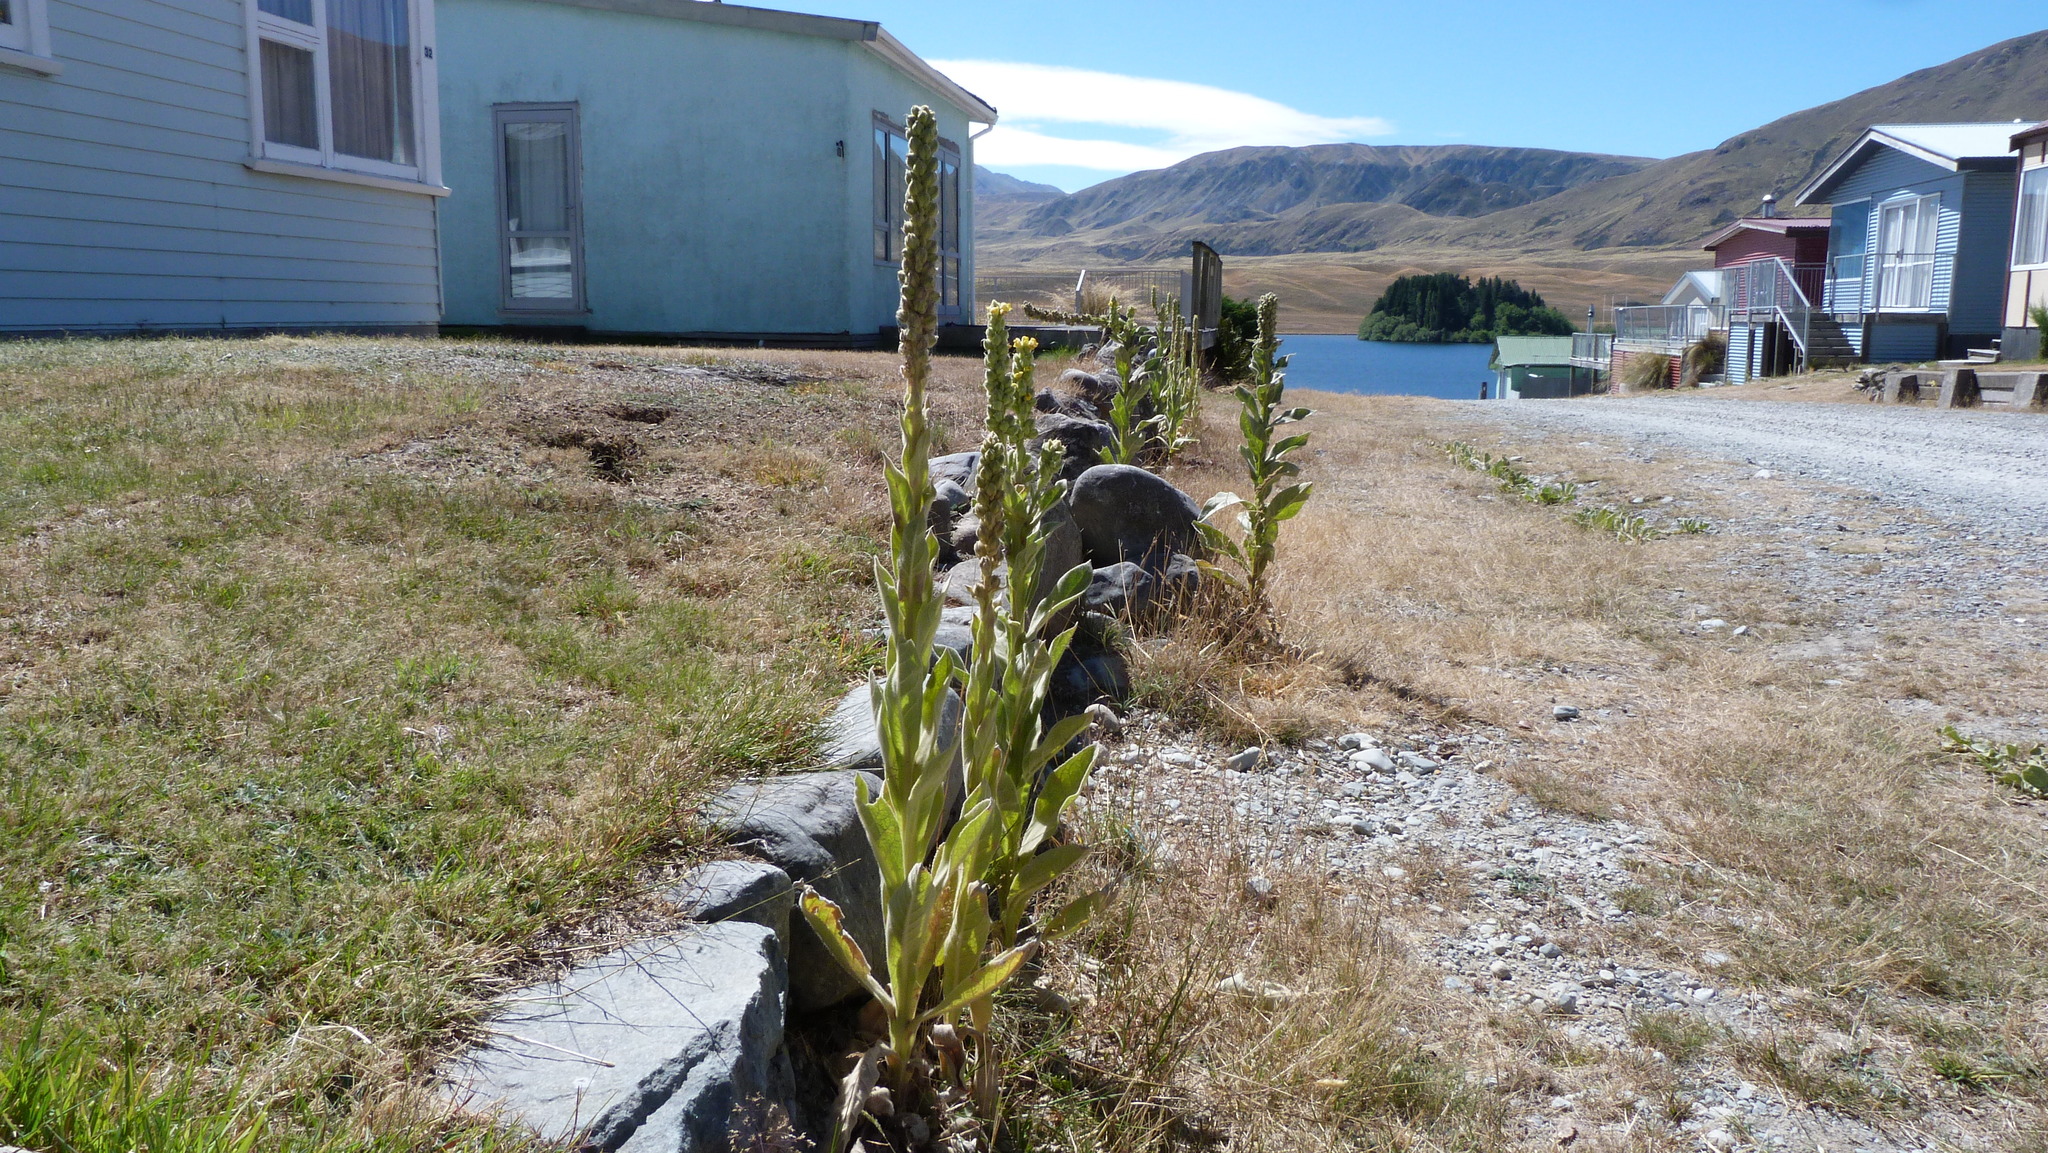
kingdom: Plantae
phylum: Tracheophyta
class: Magnoliopsida
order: Lamiales
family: Scrophulariaceae
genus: Verbascum
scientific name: Verbascum thapsus
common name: Common mullein
